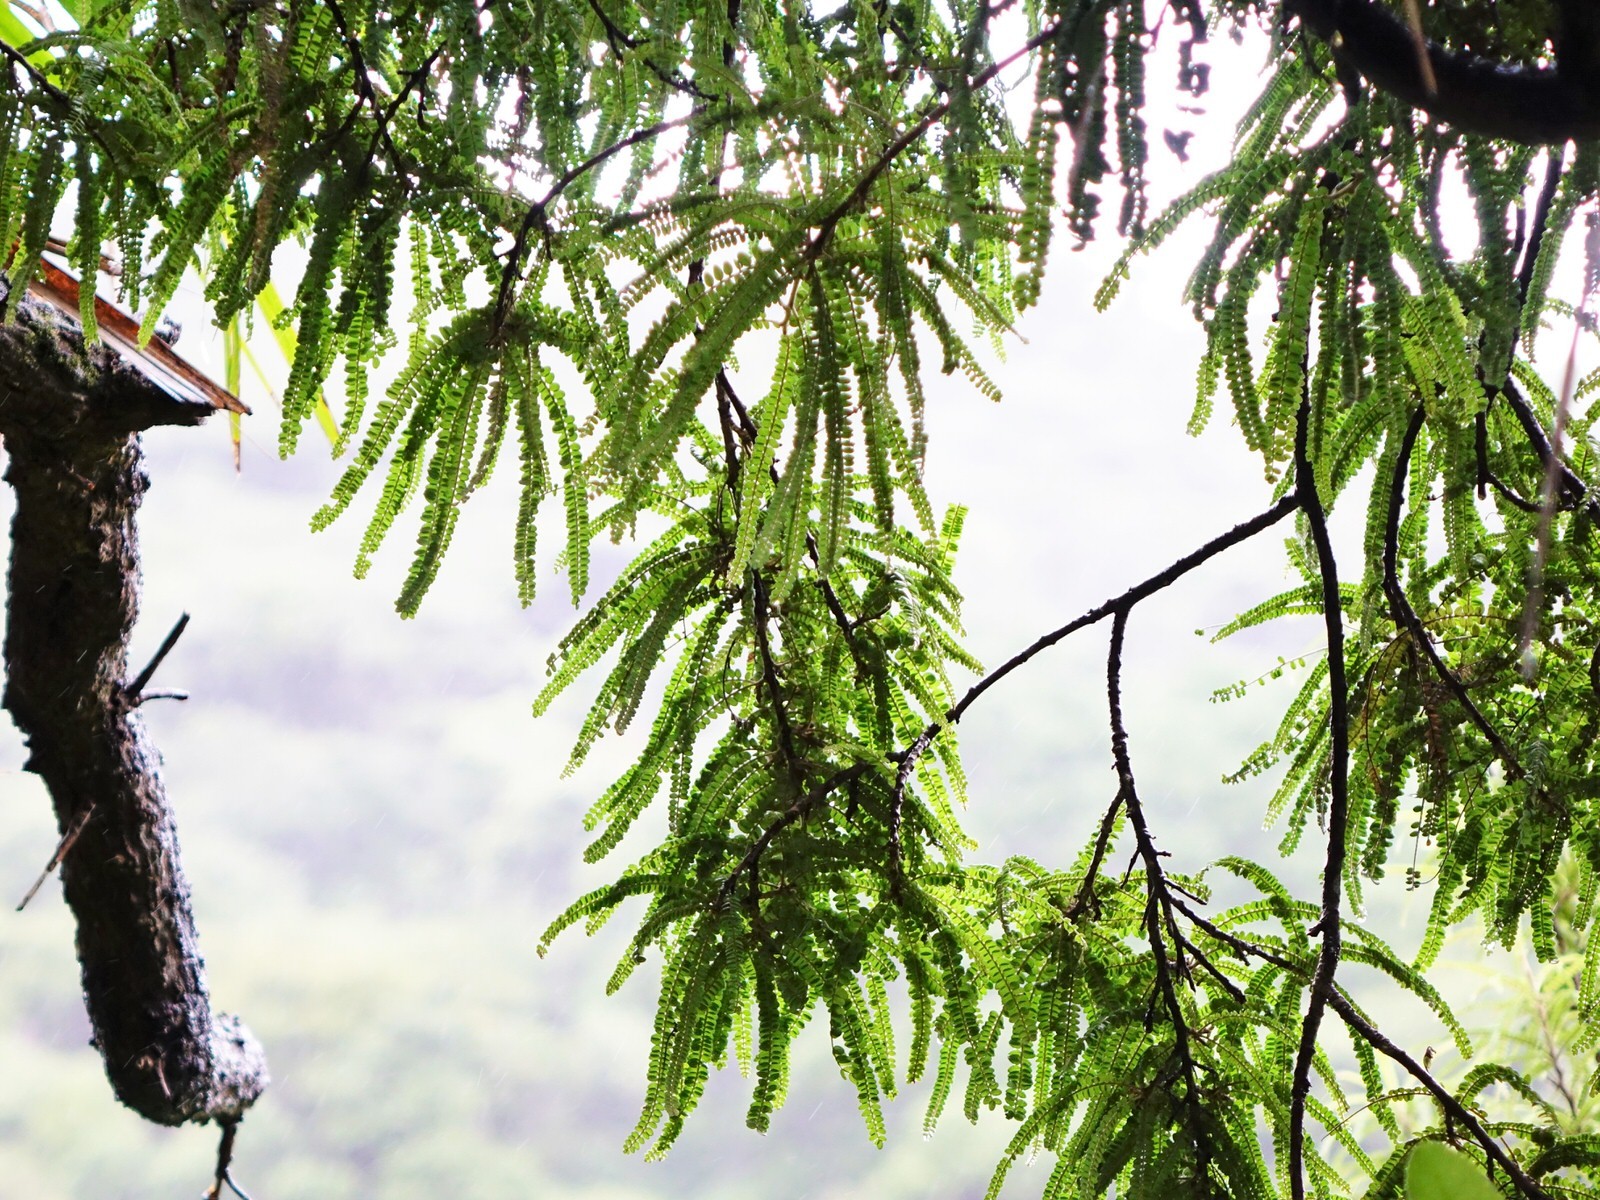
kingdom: Plantae
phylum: Tracheophyta
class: Magnoliopsida
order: Fabales
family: Fabaceae
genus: Sophora
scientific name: Sophora fulvida
